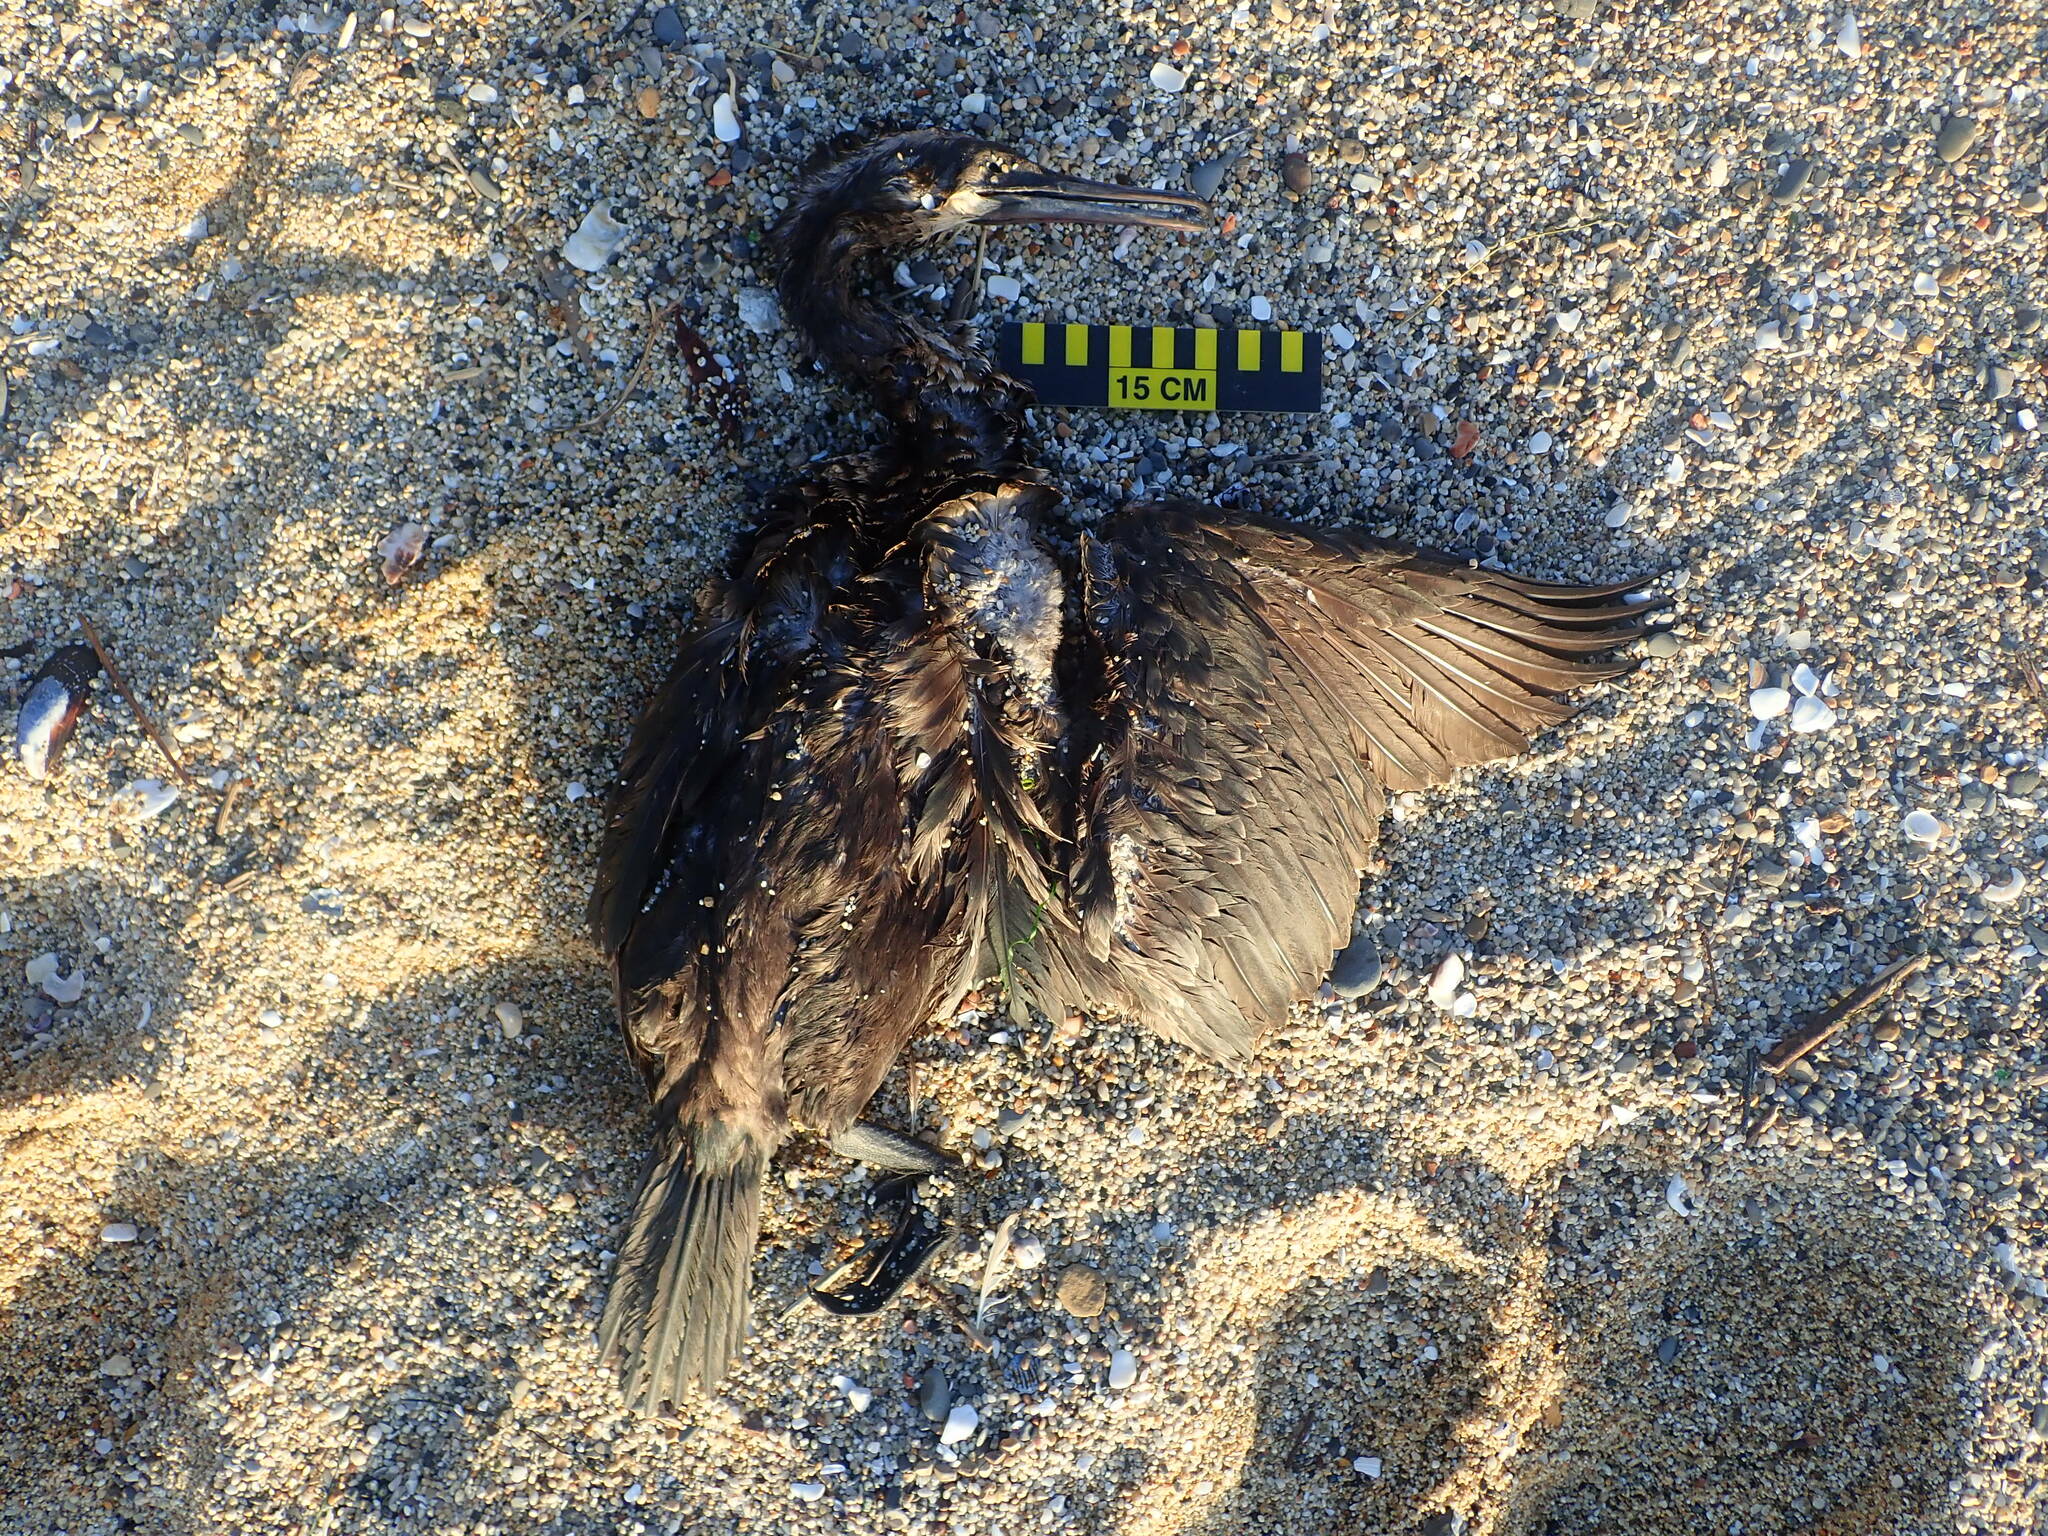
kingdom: Animalia
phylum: Chordata
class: Aves
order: Suliformes
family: Phalacrocoracidae
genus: Urile
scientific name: Urile penicillatus
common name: Brandt's cormorant
